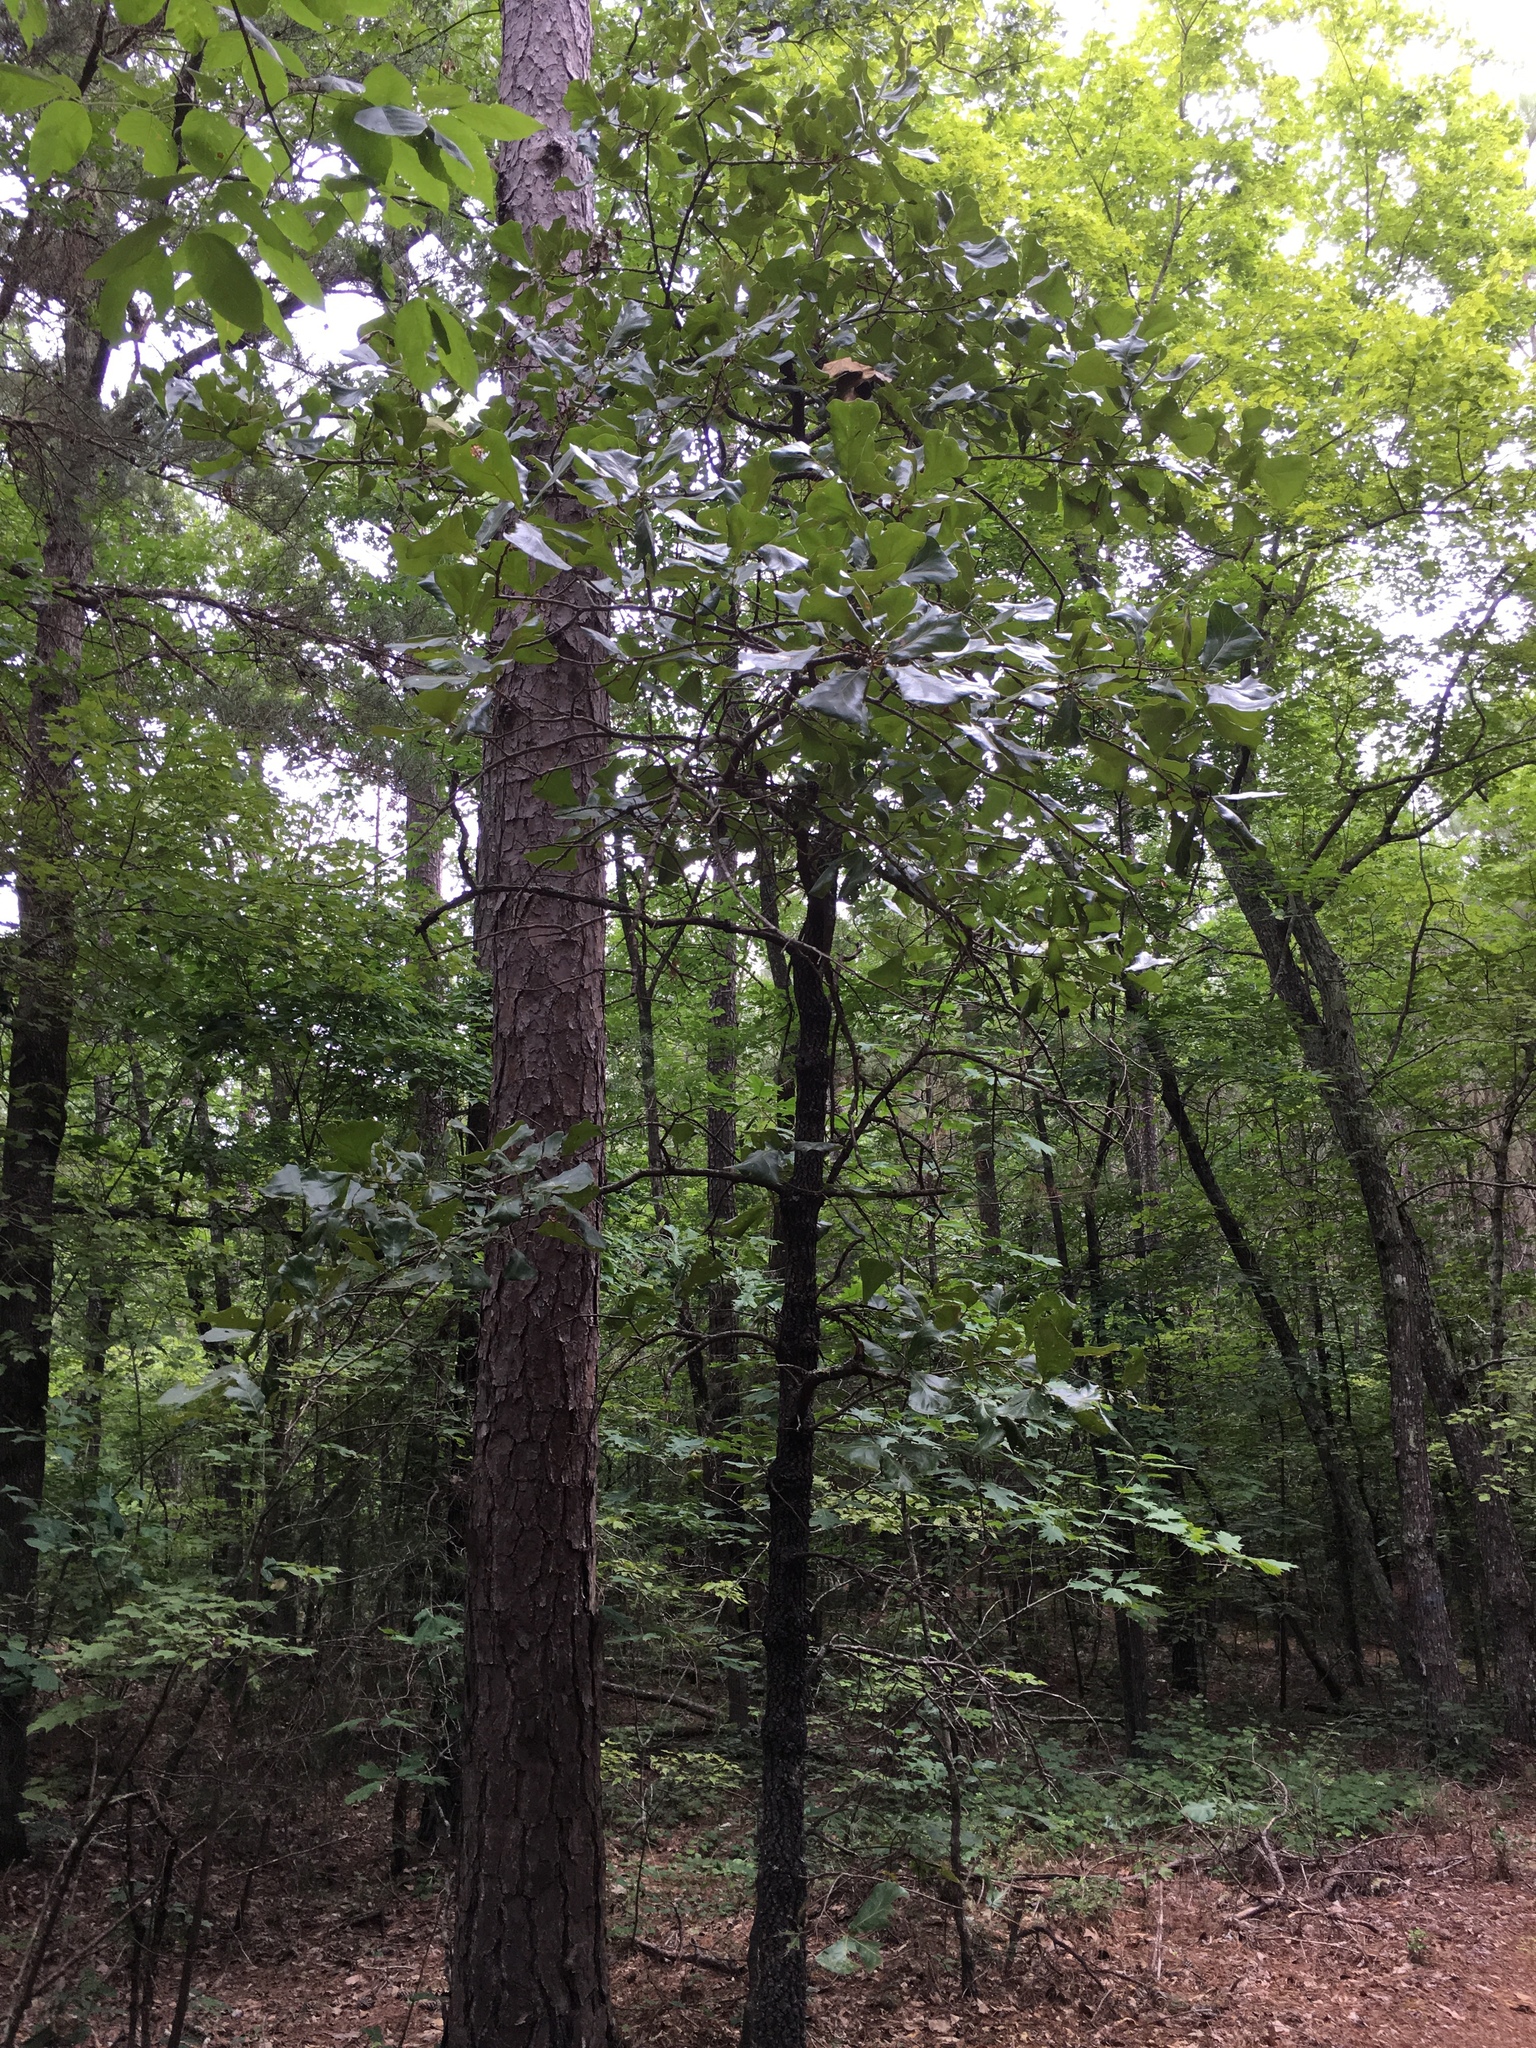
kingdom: Plantae
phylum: Tracheophyta
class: Magnoliopsida
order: Fagales
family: Fagaceae
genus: Quercus
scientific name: Quercus marilandica
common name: Blackjack oak
